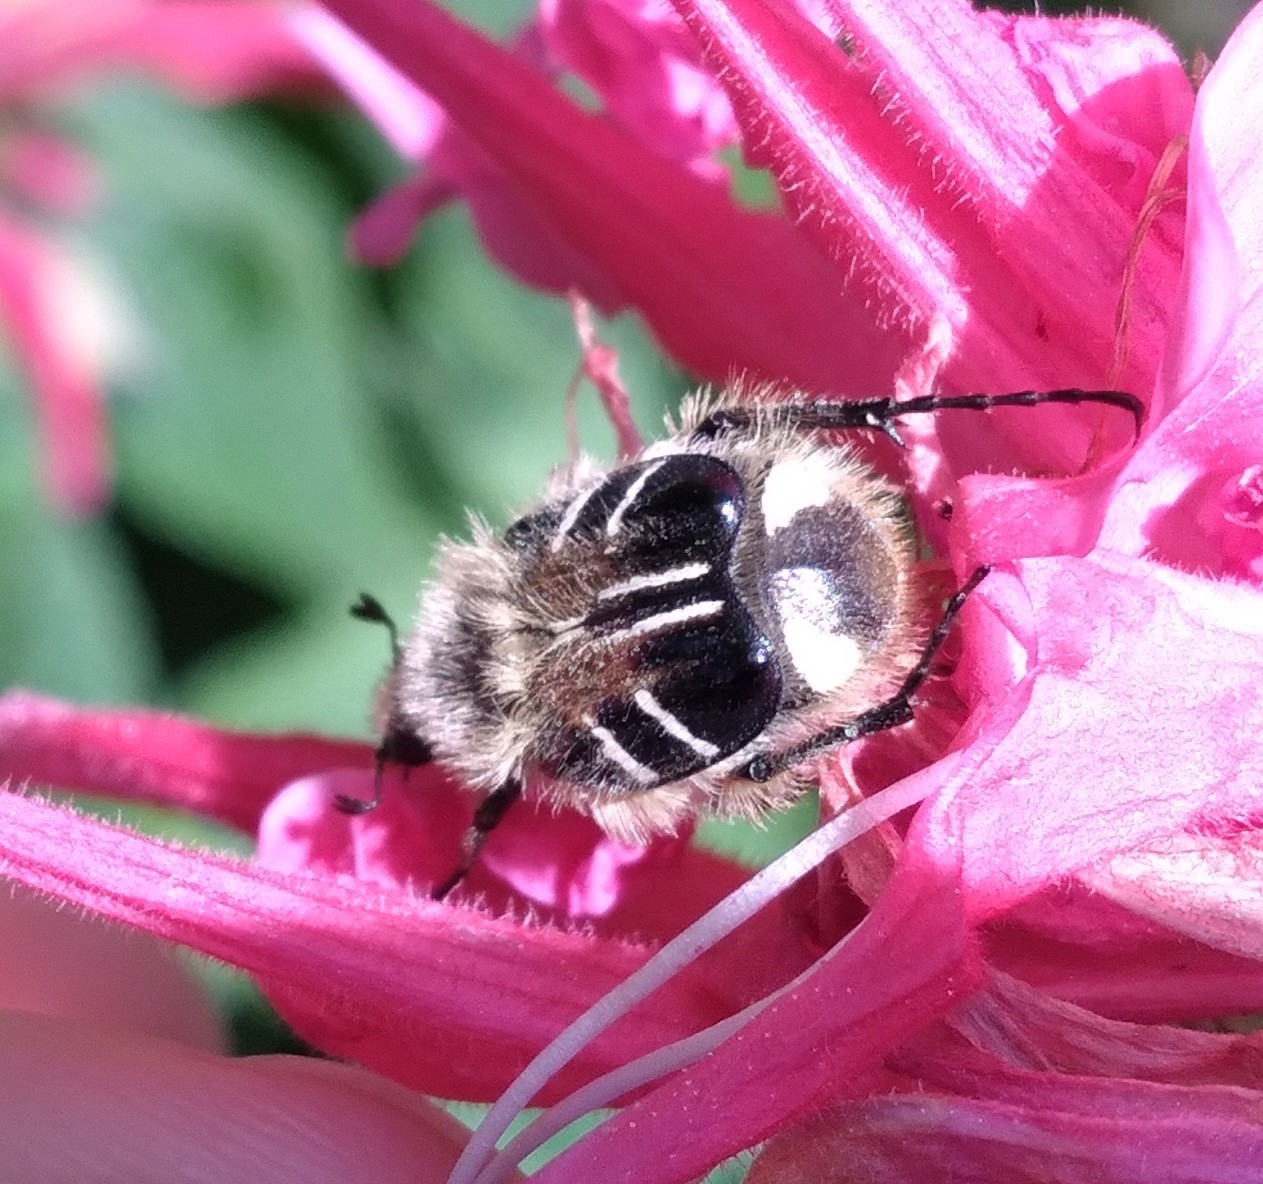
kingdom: Animalia
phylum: Arthropoda
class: Insecta
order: Coleoptera
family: Scarabaeidae
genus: Trichiotinus
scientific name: Trichiotinus assimilis
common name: Bee-mimic beetle
